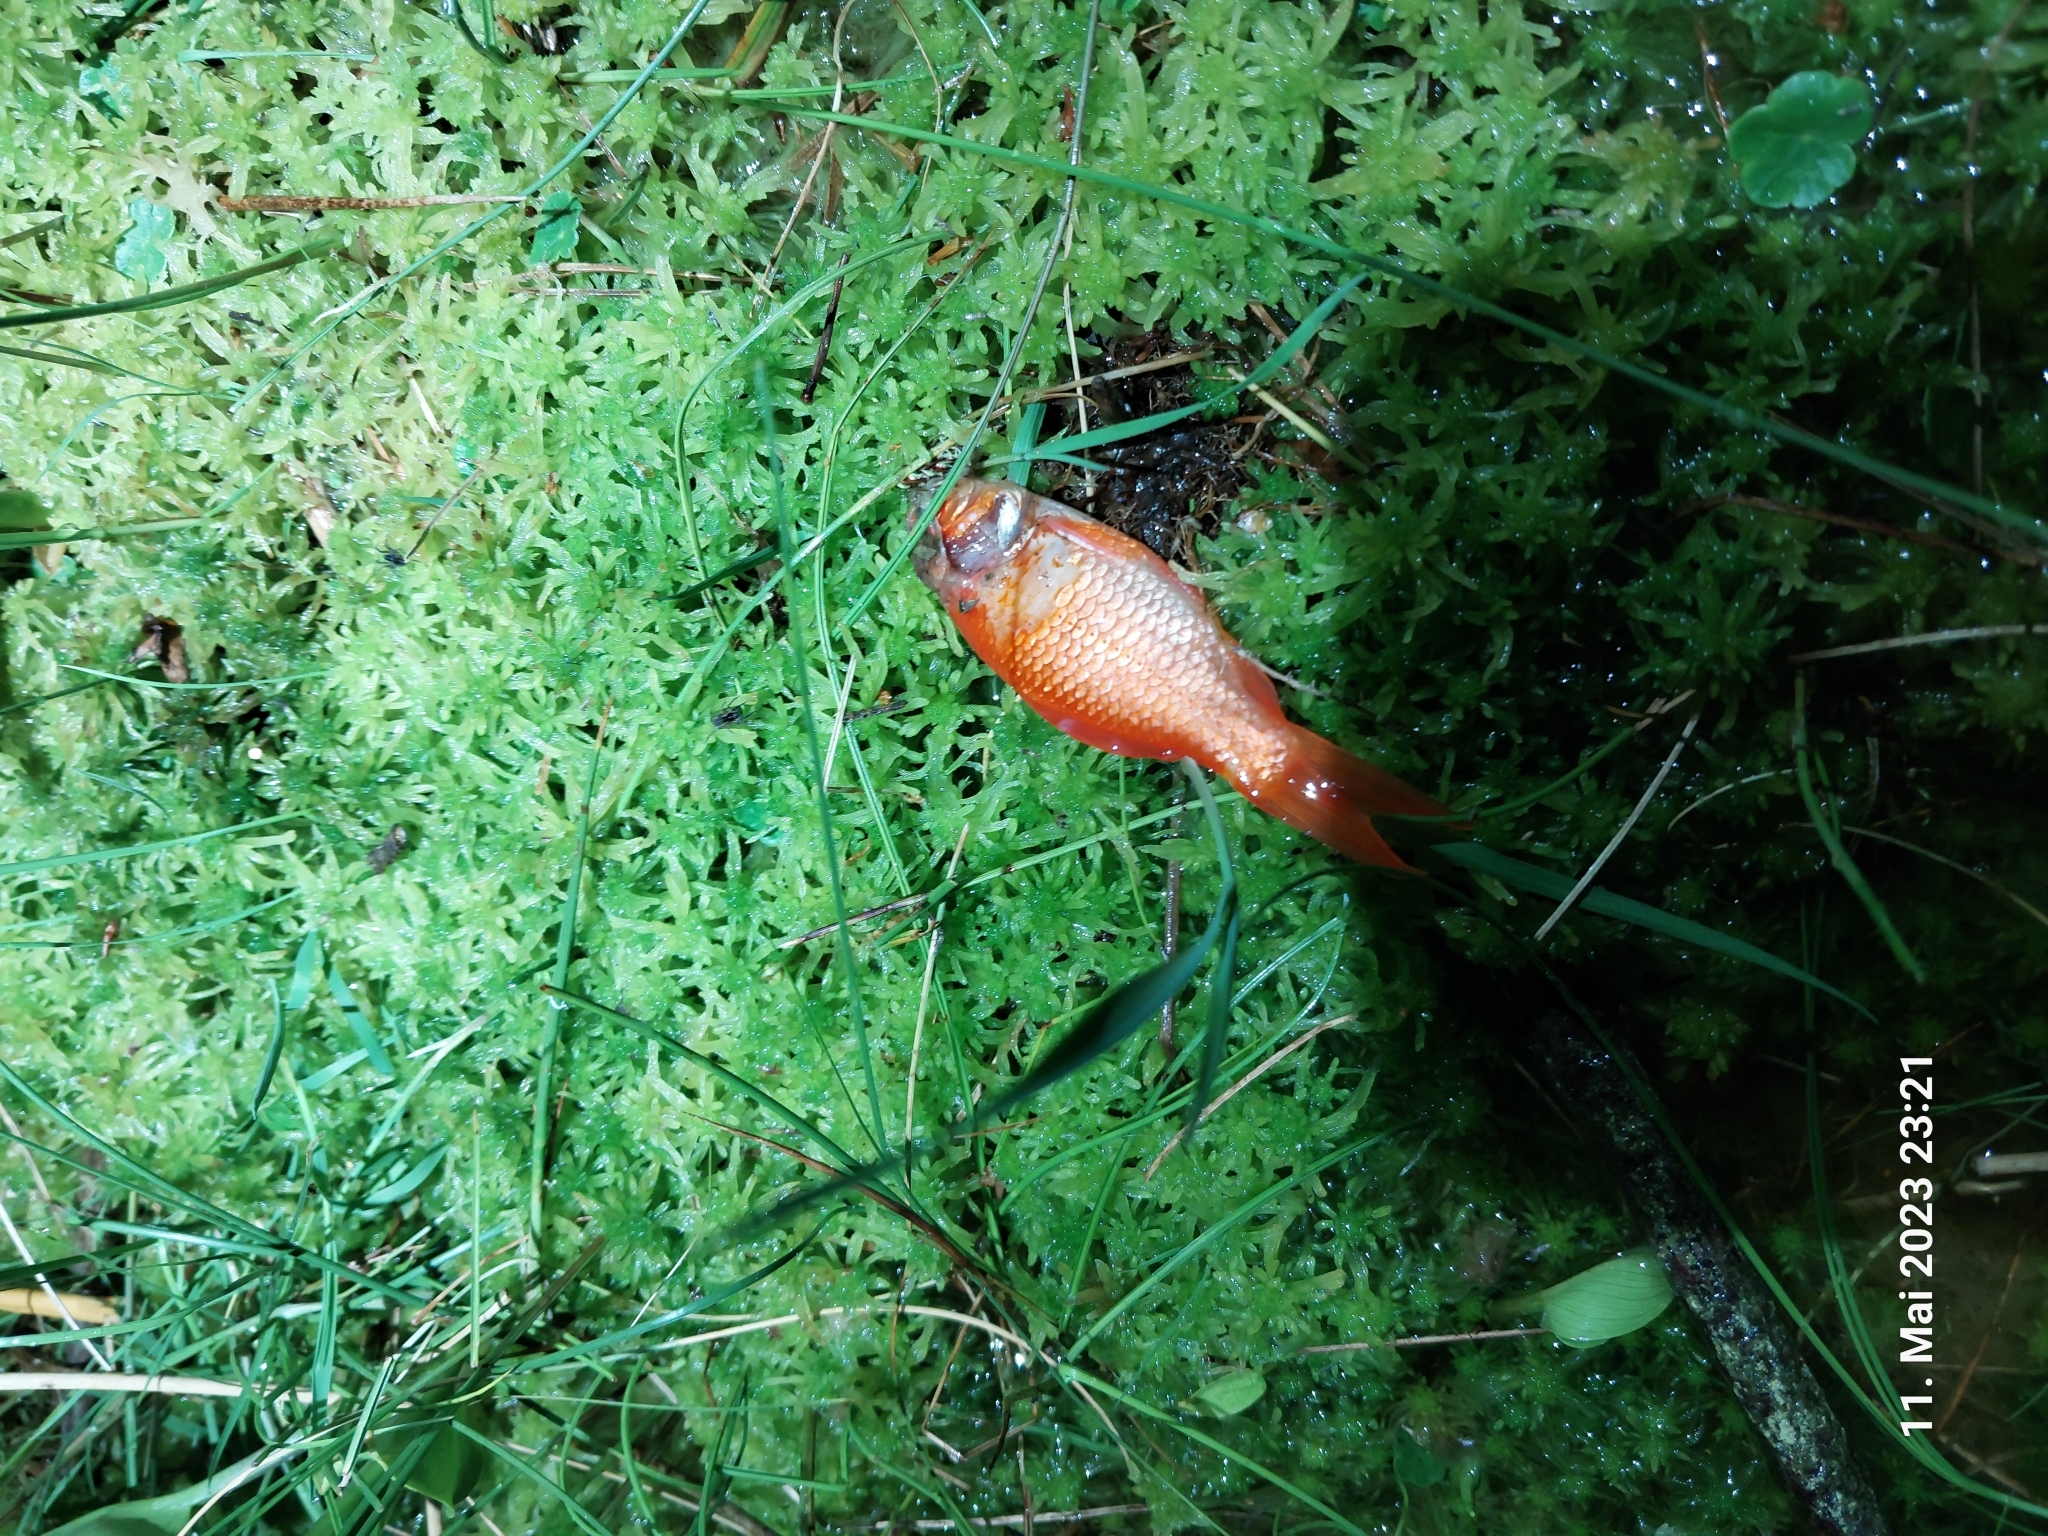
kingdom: Animalia
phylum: Chordata
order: Cypriniformes
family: Cyprinidae
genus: Carassius
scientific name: Carassius auratus
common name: Goldfish
